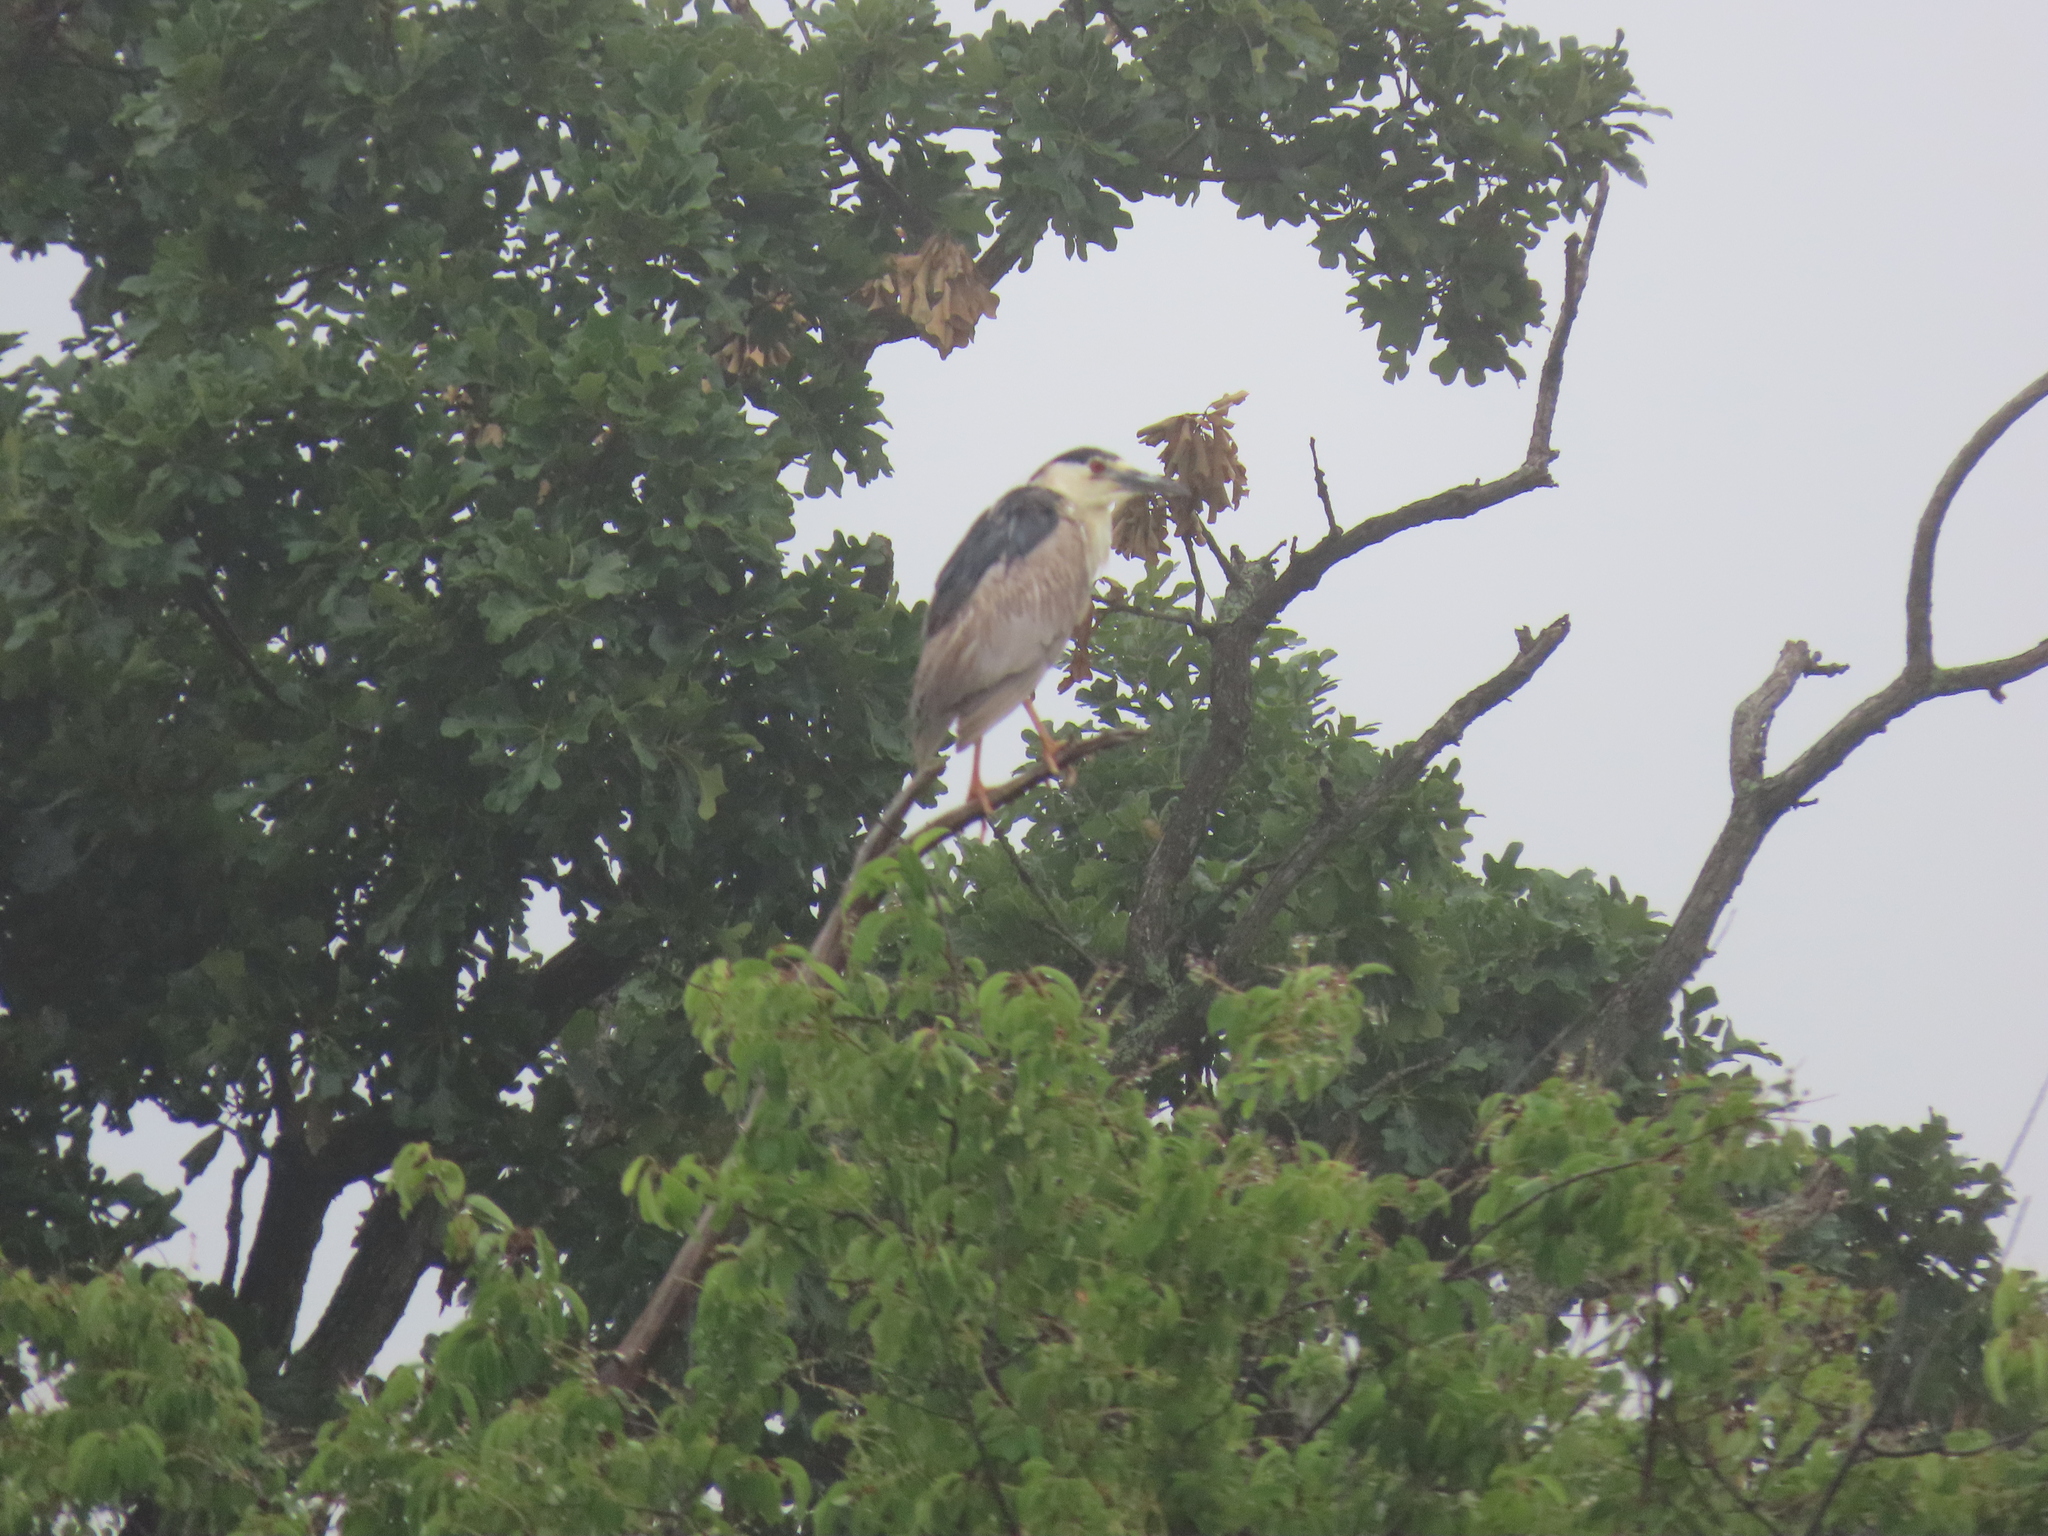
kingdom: Animalia
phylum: Chordata
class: Aves
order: Pelecaniformes
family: Ardeidae
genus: Nycticorax
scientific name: Nycticorax nycticorax
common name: Black-crowned night heron
